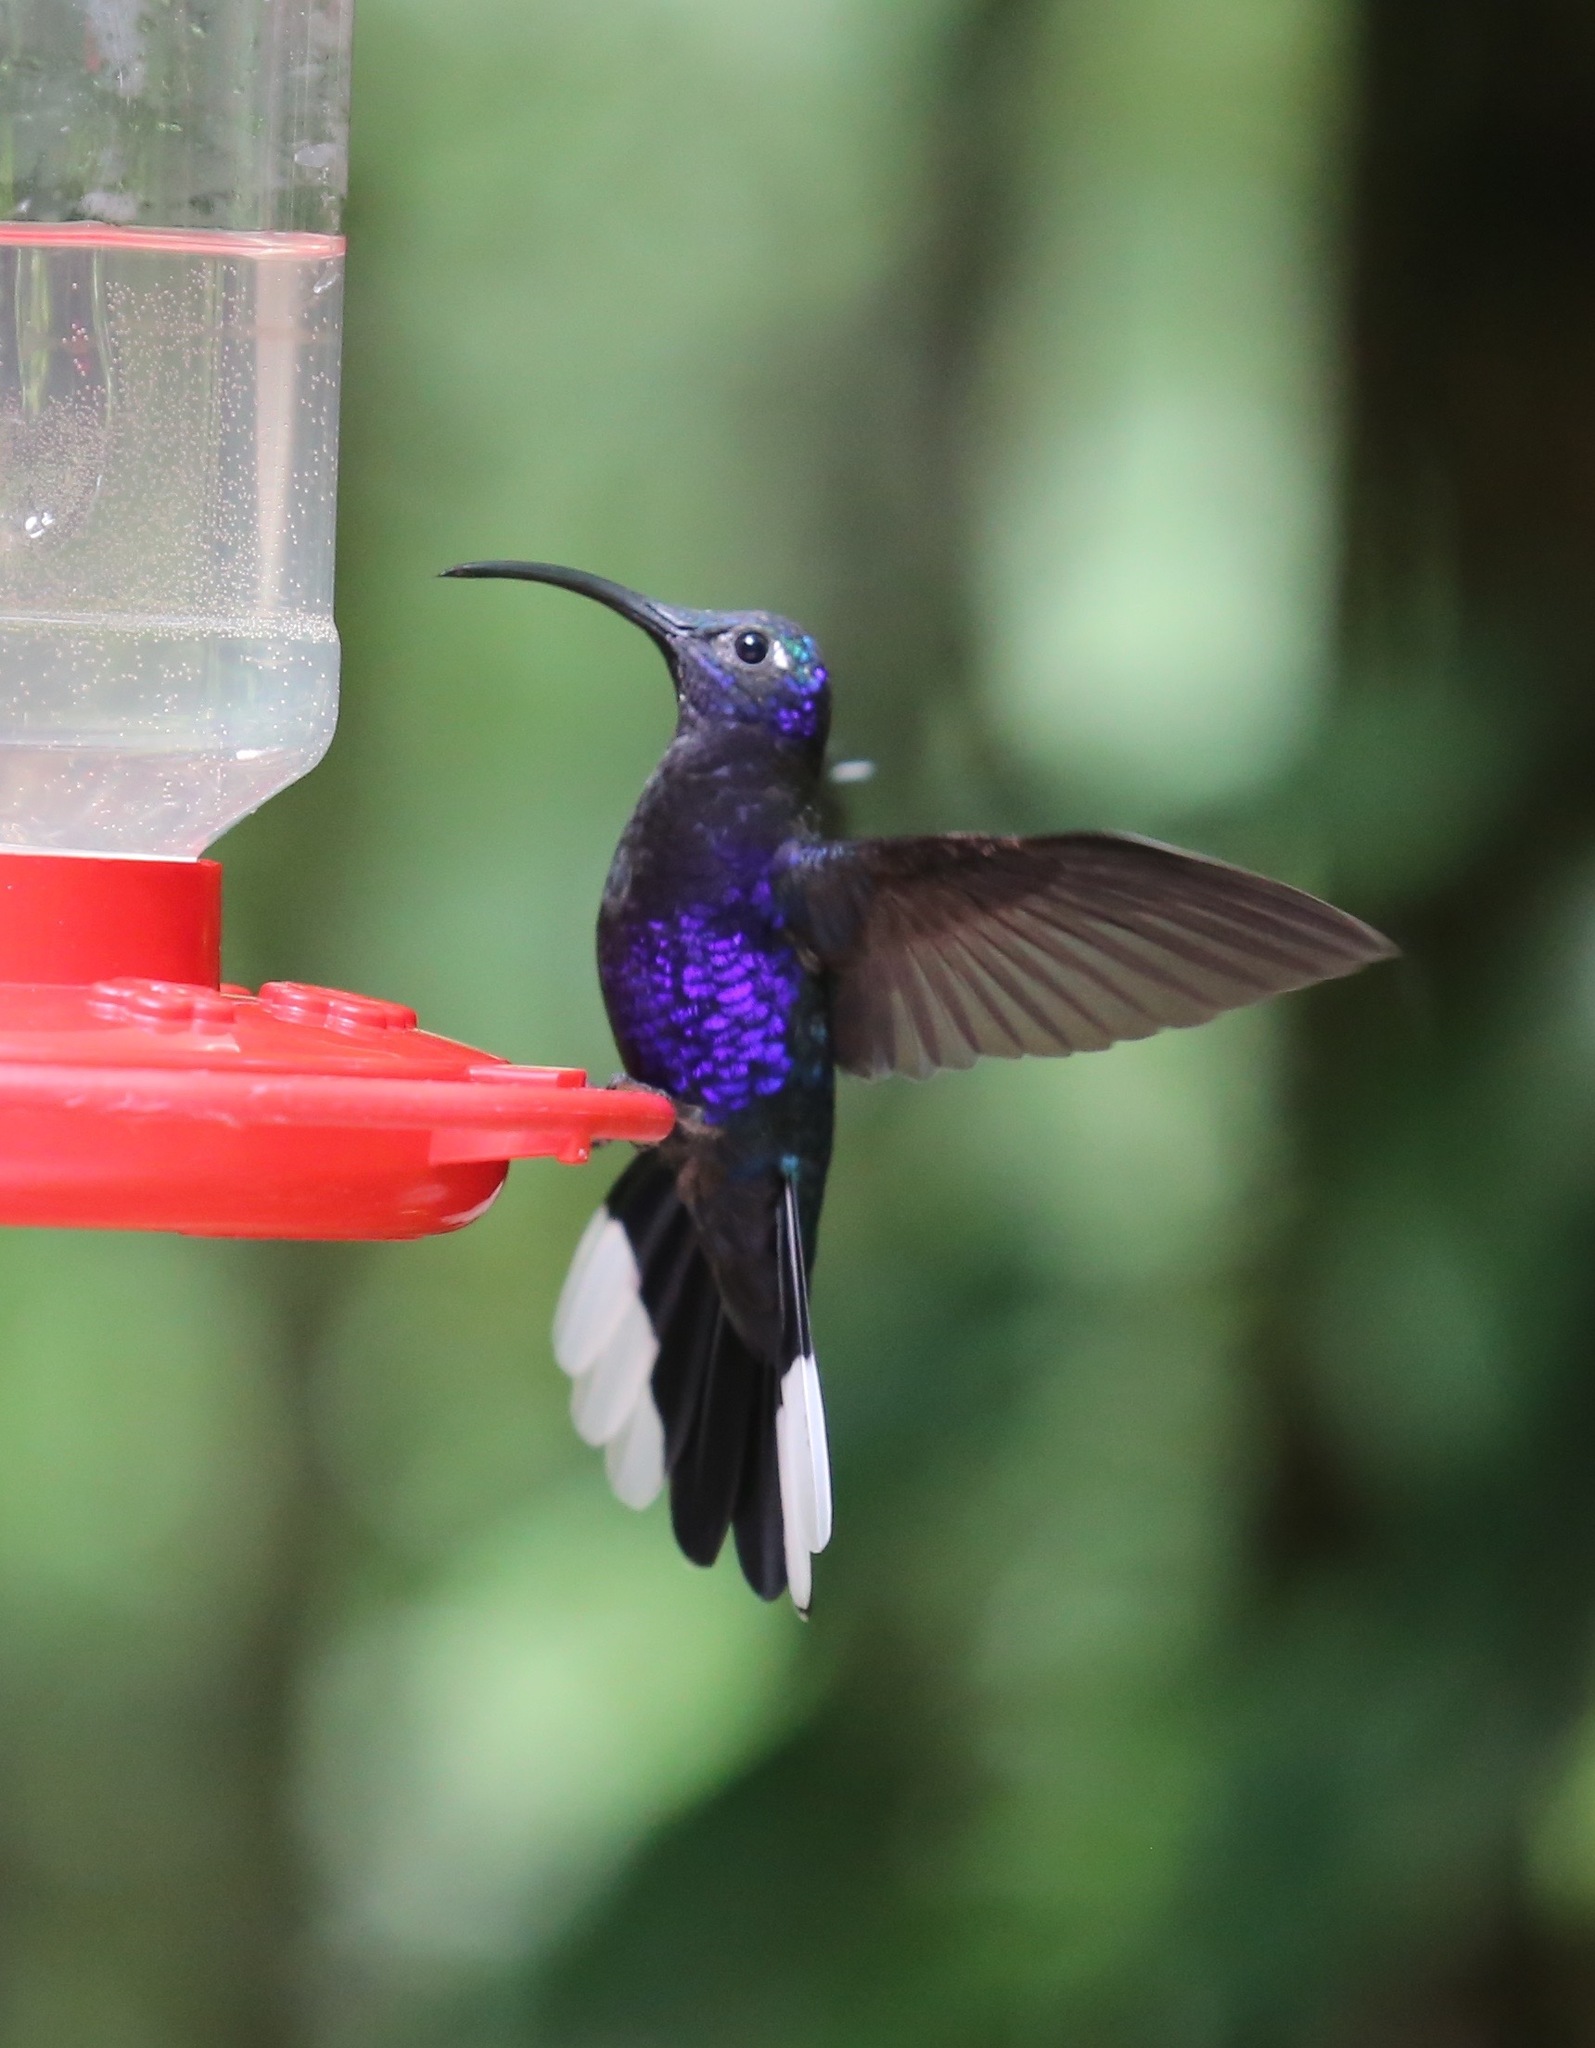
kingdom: Animalia
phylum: Chordata
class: Aves
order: Apodiformes
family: Trochilidae
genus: Campylopterus
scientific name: Campylopterus hemileucurus
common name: Violet sabrewing
